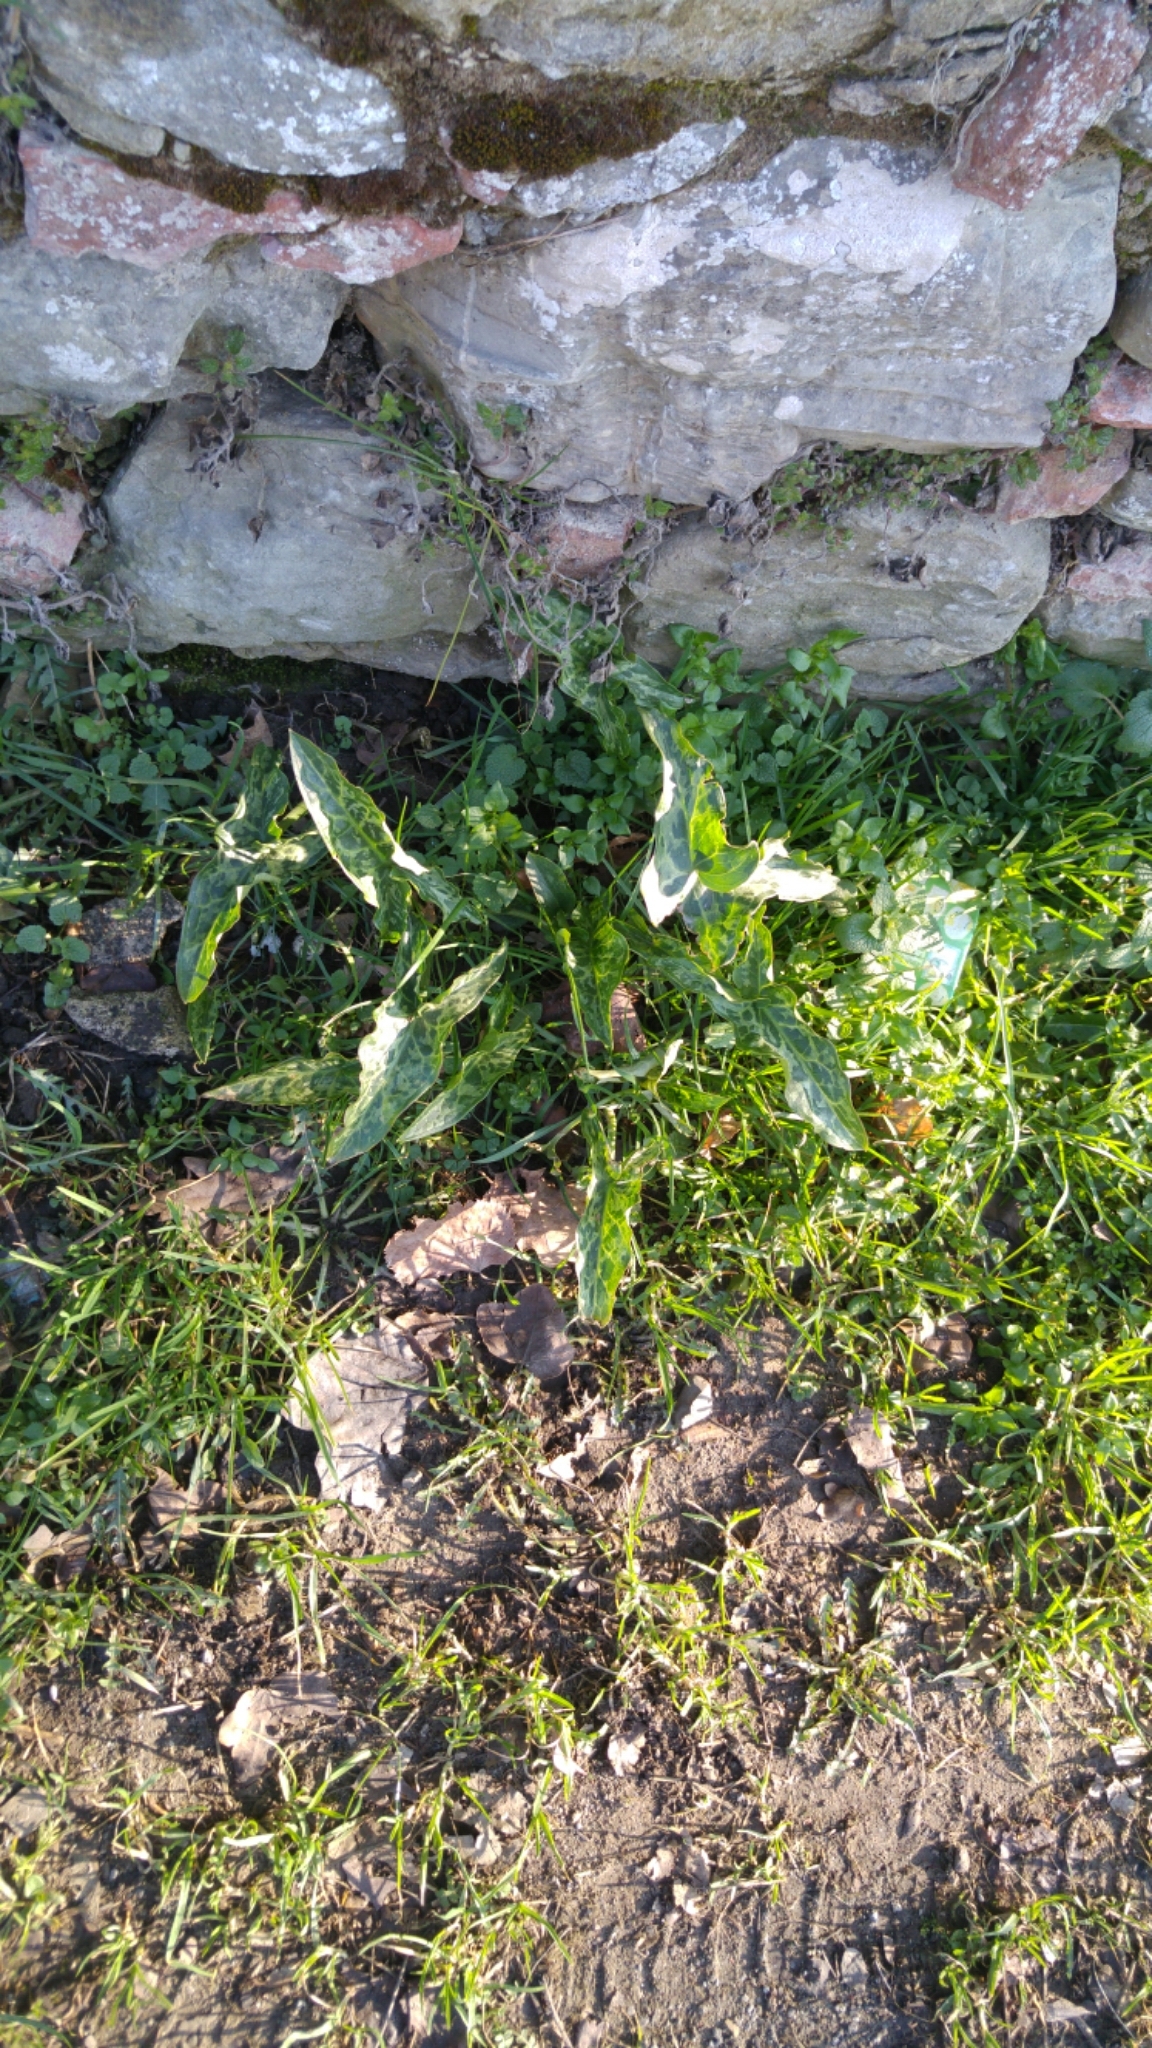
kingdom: Plantae
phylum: Tracheophyta
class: Liliopsida
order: Alismatales
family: Araceae
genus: Arum
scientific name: Arum italicum
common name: Italian lords-and-ladies
